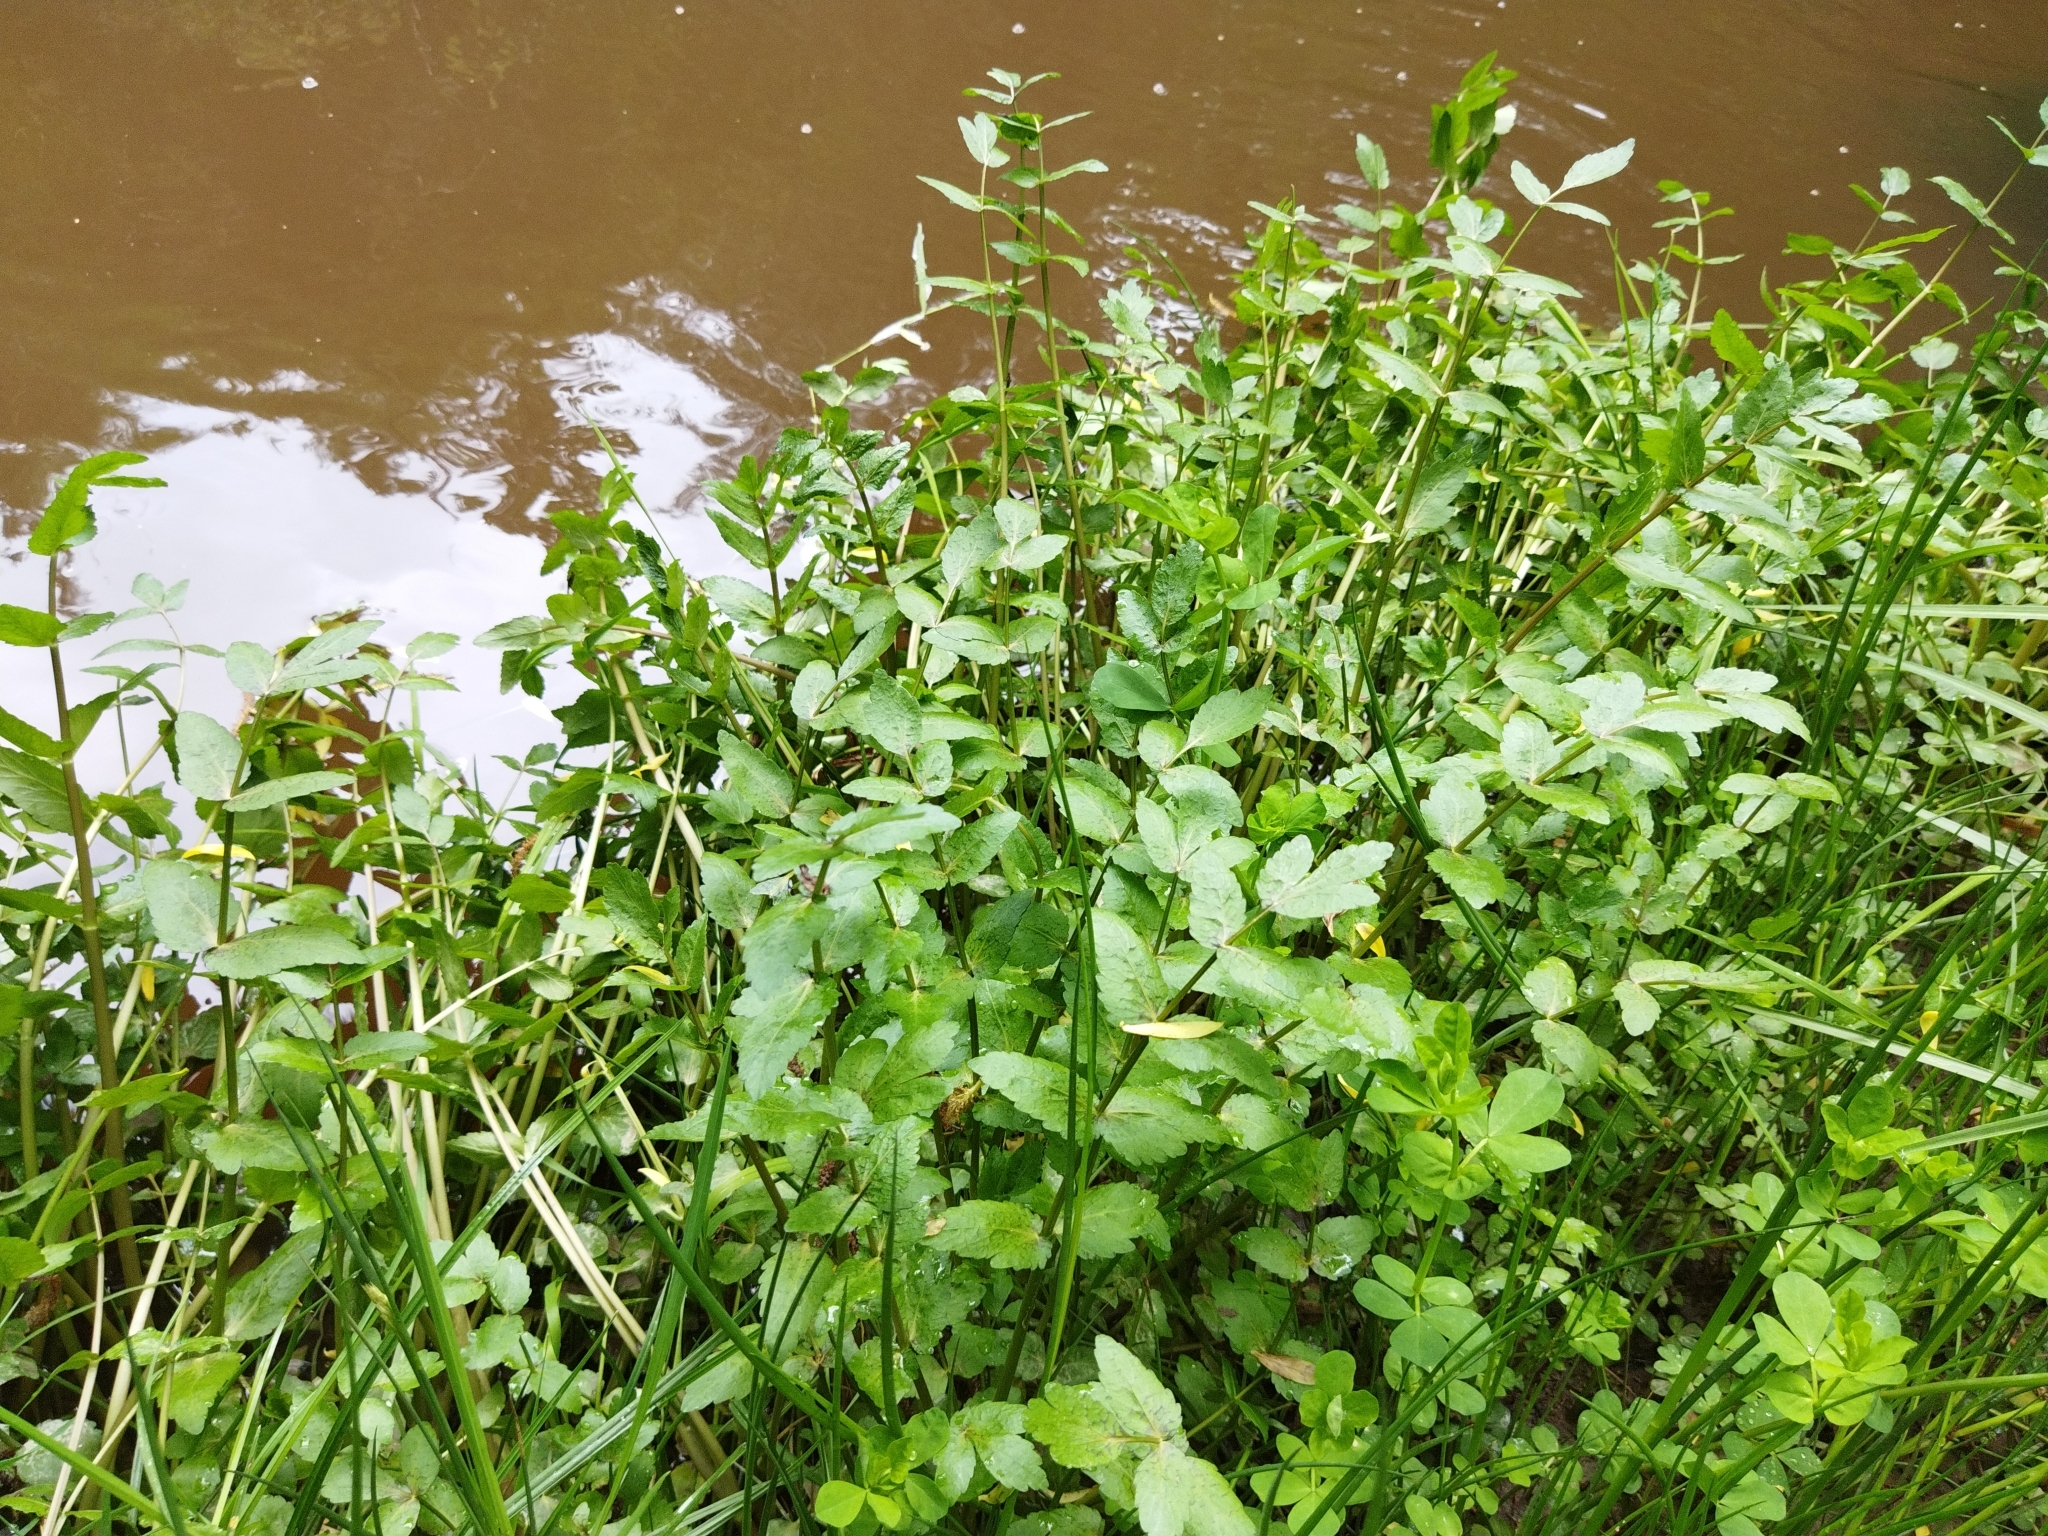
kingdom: Plantae
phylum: Tracheophyta
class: Magnoliopsida
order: Apiales
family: Apiaceae
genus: Helosciadium
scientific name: Helosciadium nodiflorum
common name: Fool's-watercress
